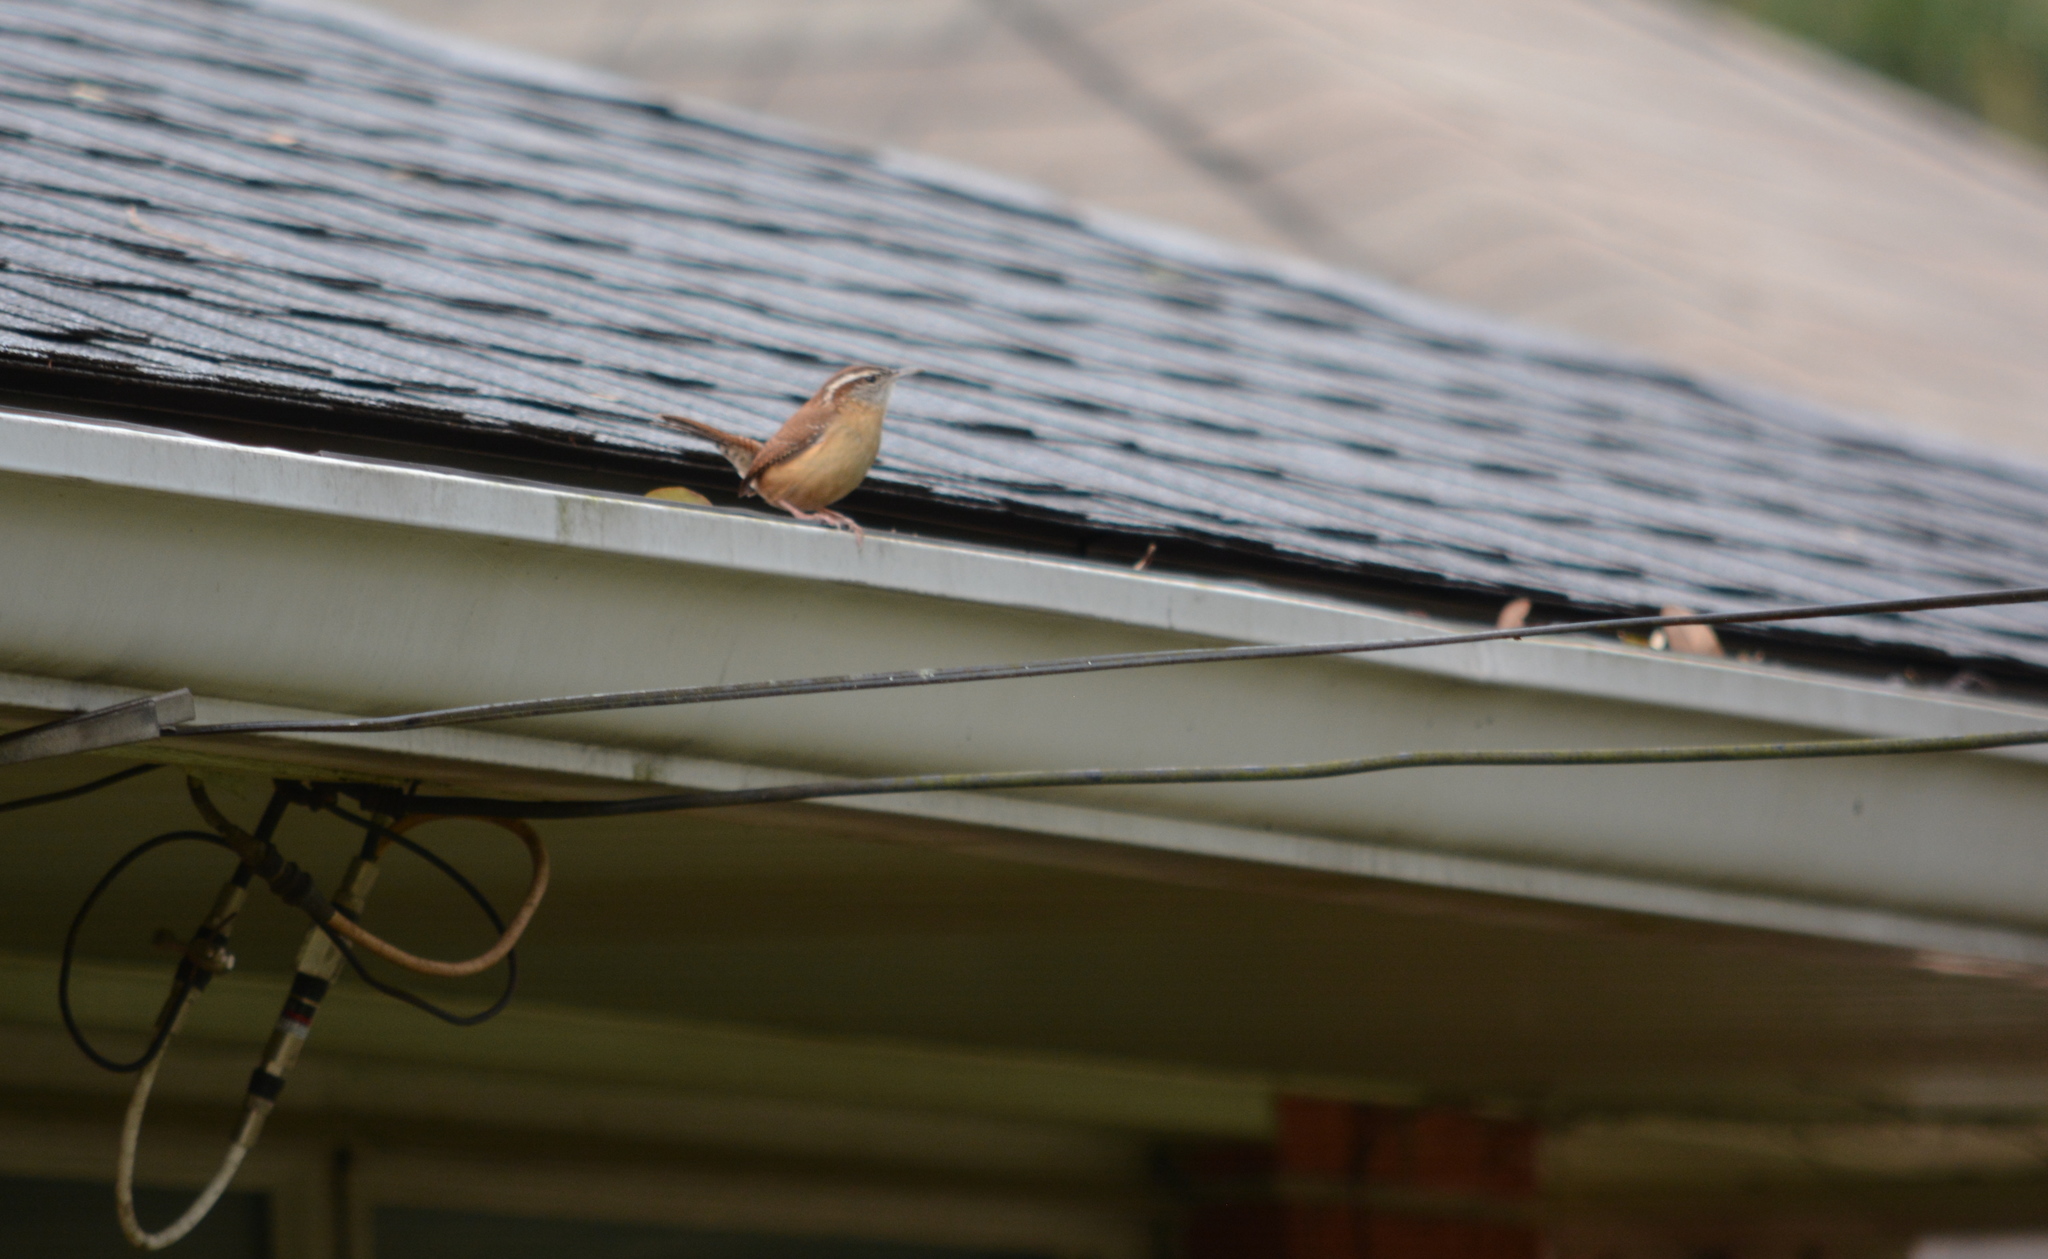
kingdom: Animalia
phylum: Chordata
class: Aves
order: Passeriformes
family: Troglodytidae
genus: Thryothorus
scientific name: Thryothorus ludovicianus
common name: Carolina wren
